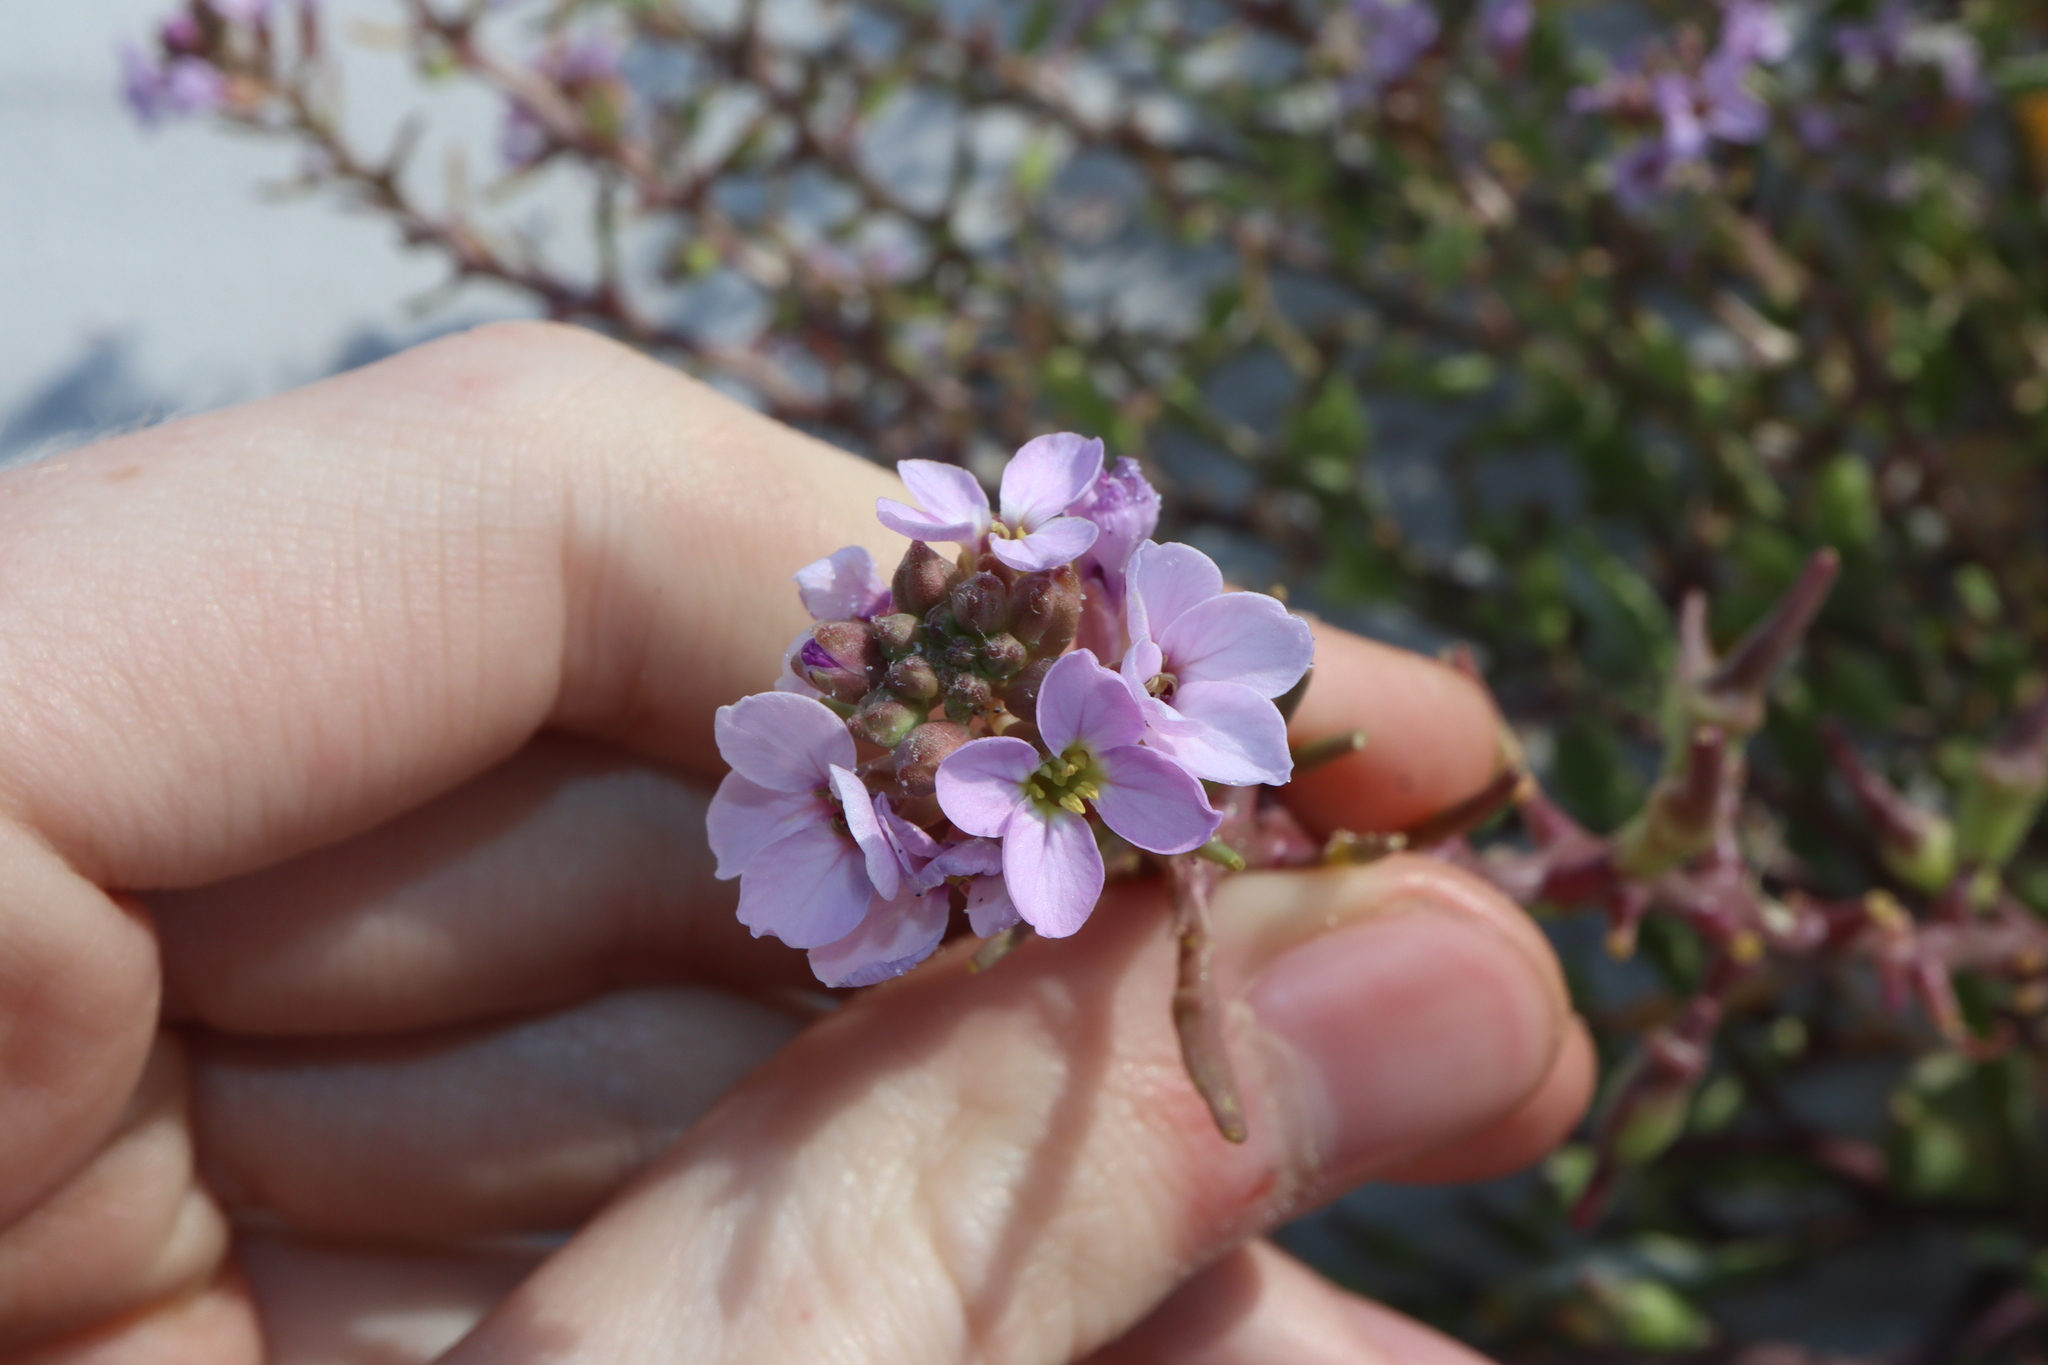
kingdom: Plantae
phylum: Tracheophyta
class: Magnoliopsida
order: Brassicales
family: Brassicaceae
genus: Cakile
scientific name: Cakile maritima
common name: Sea rocket
